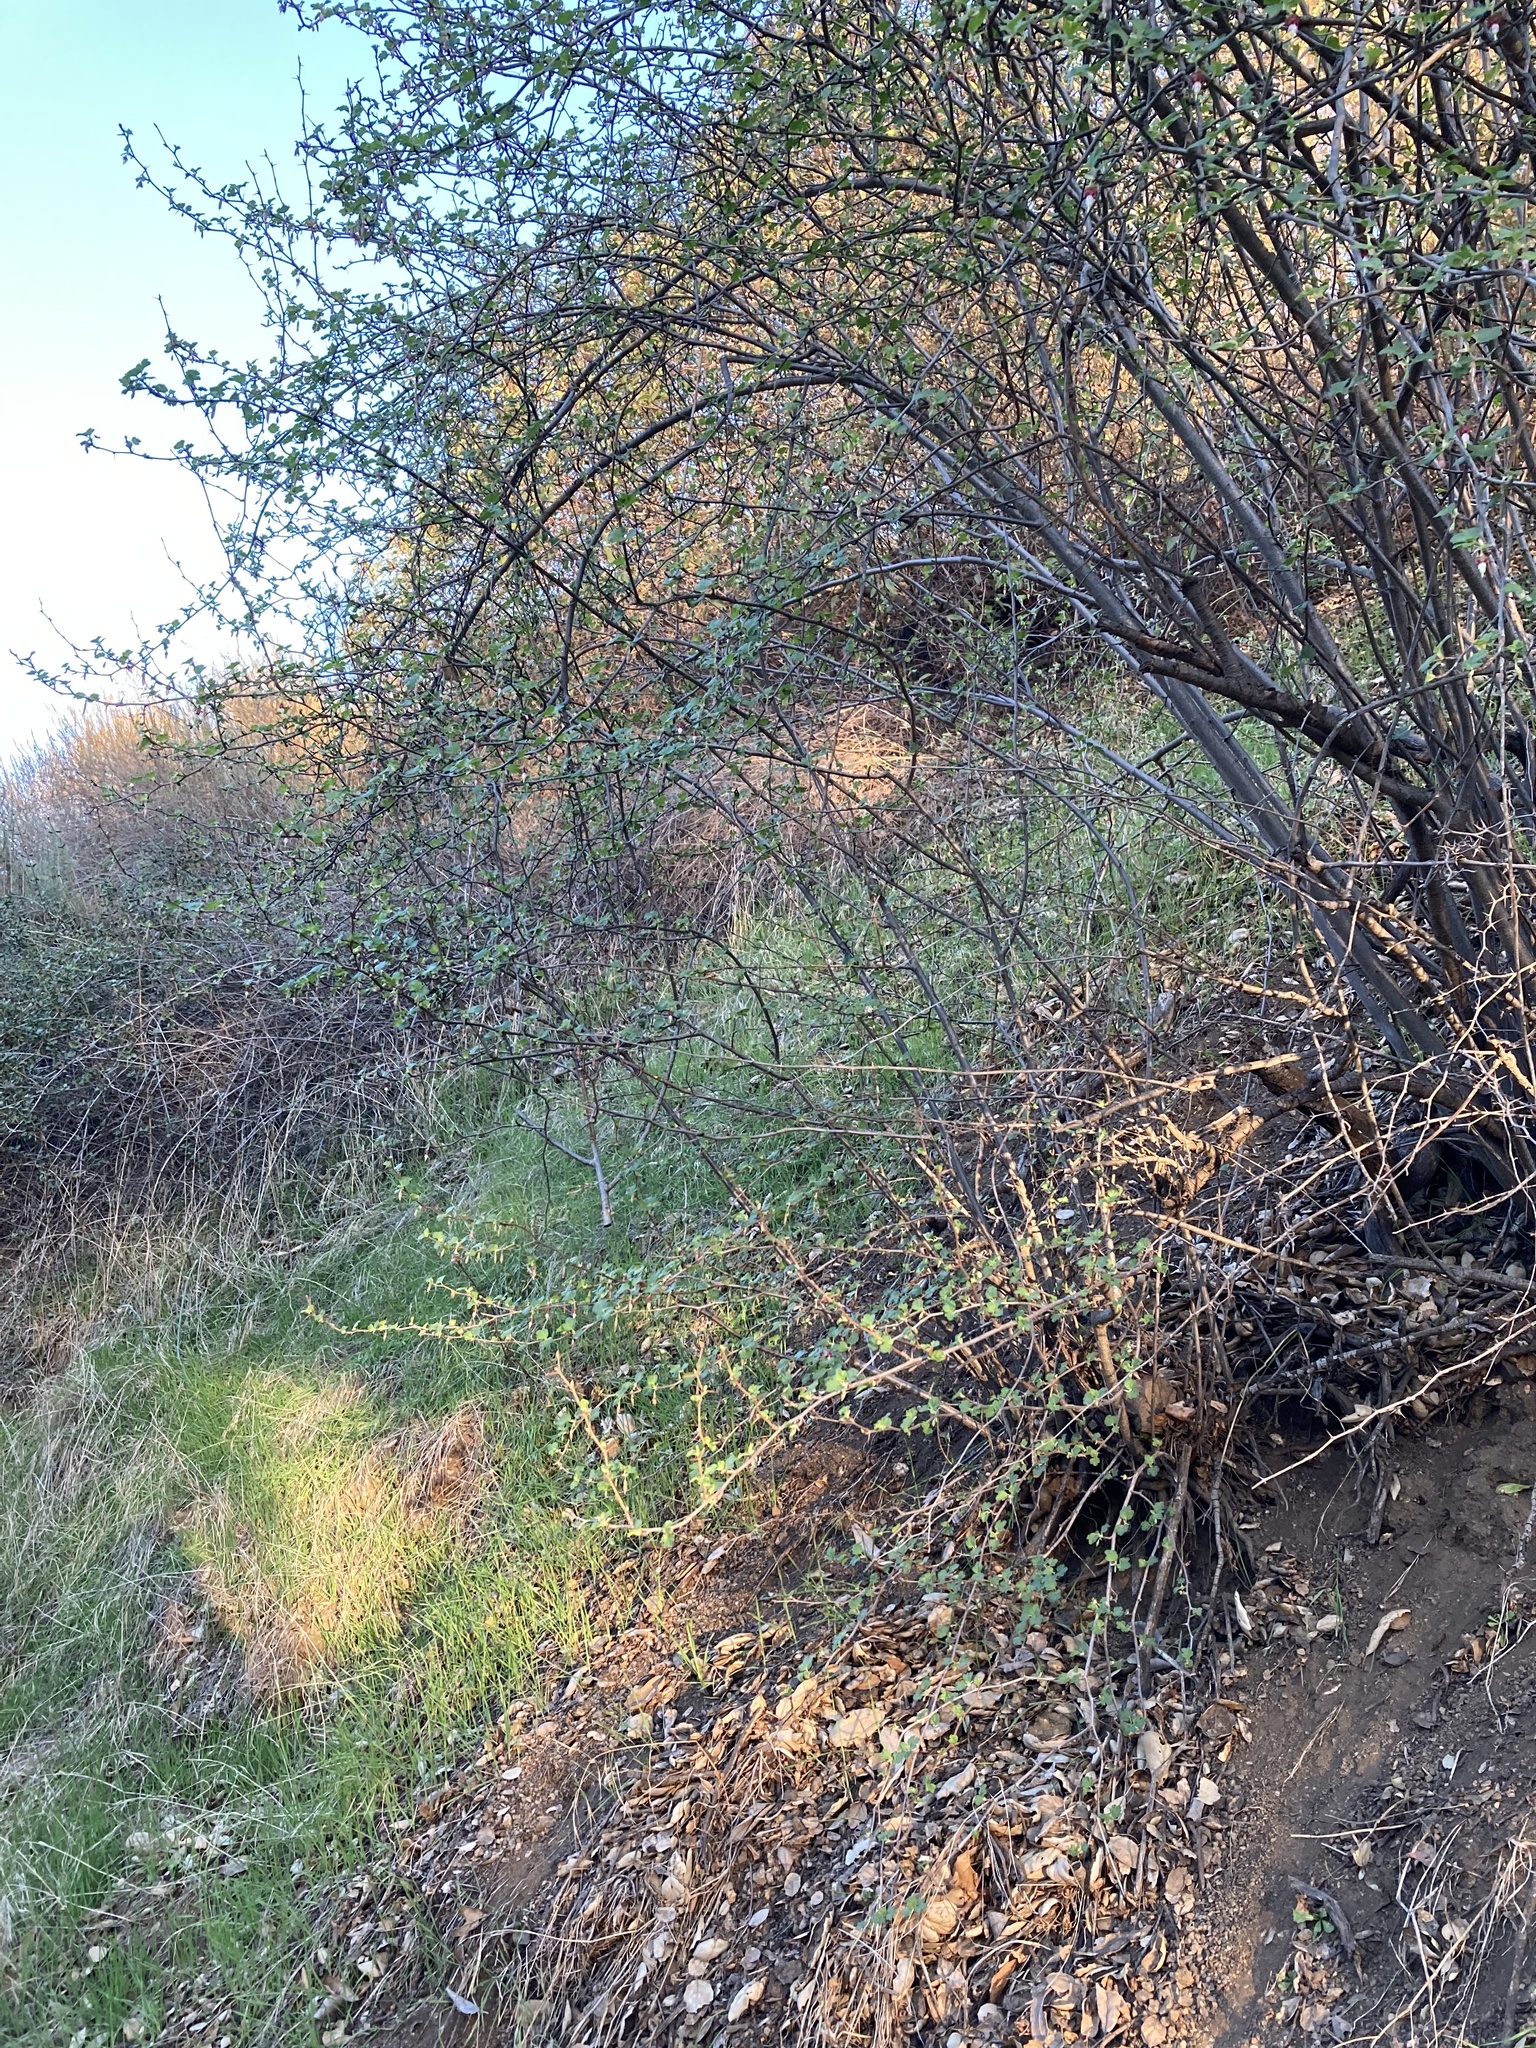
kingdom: Plantae
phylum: Tracheophyta
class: Magnoliopsida
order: Saxifragales
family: Grossulariaceae
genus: Ribes
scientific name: Ribes californicum
